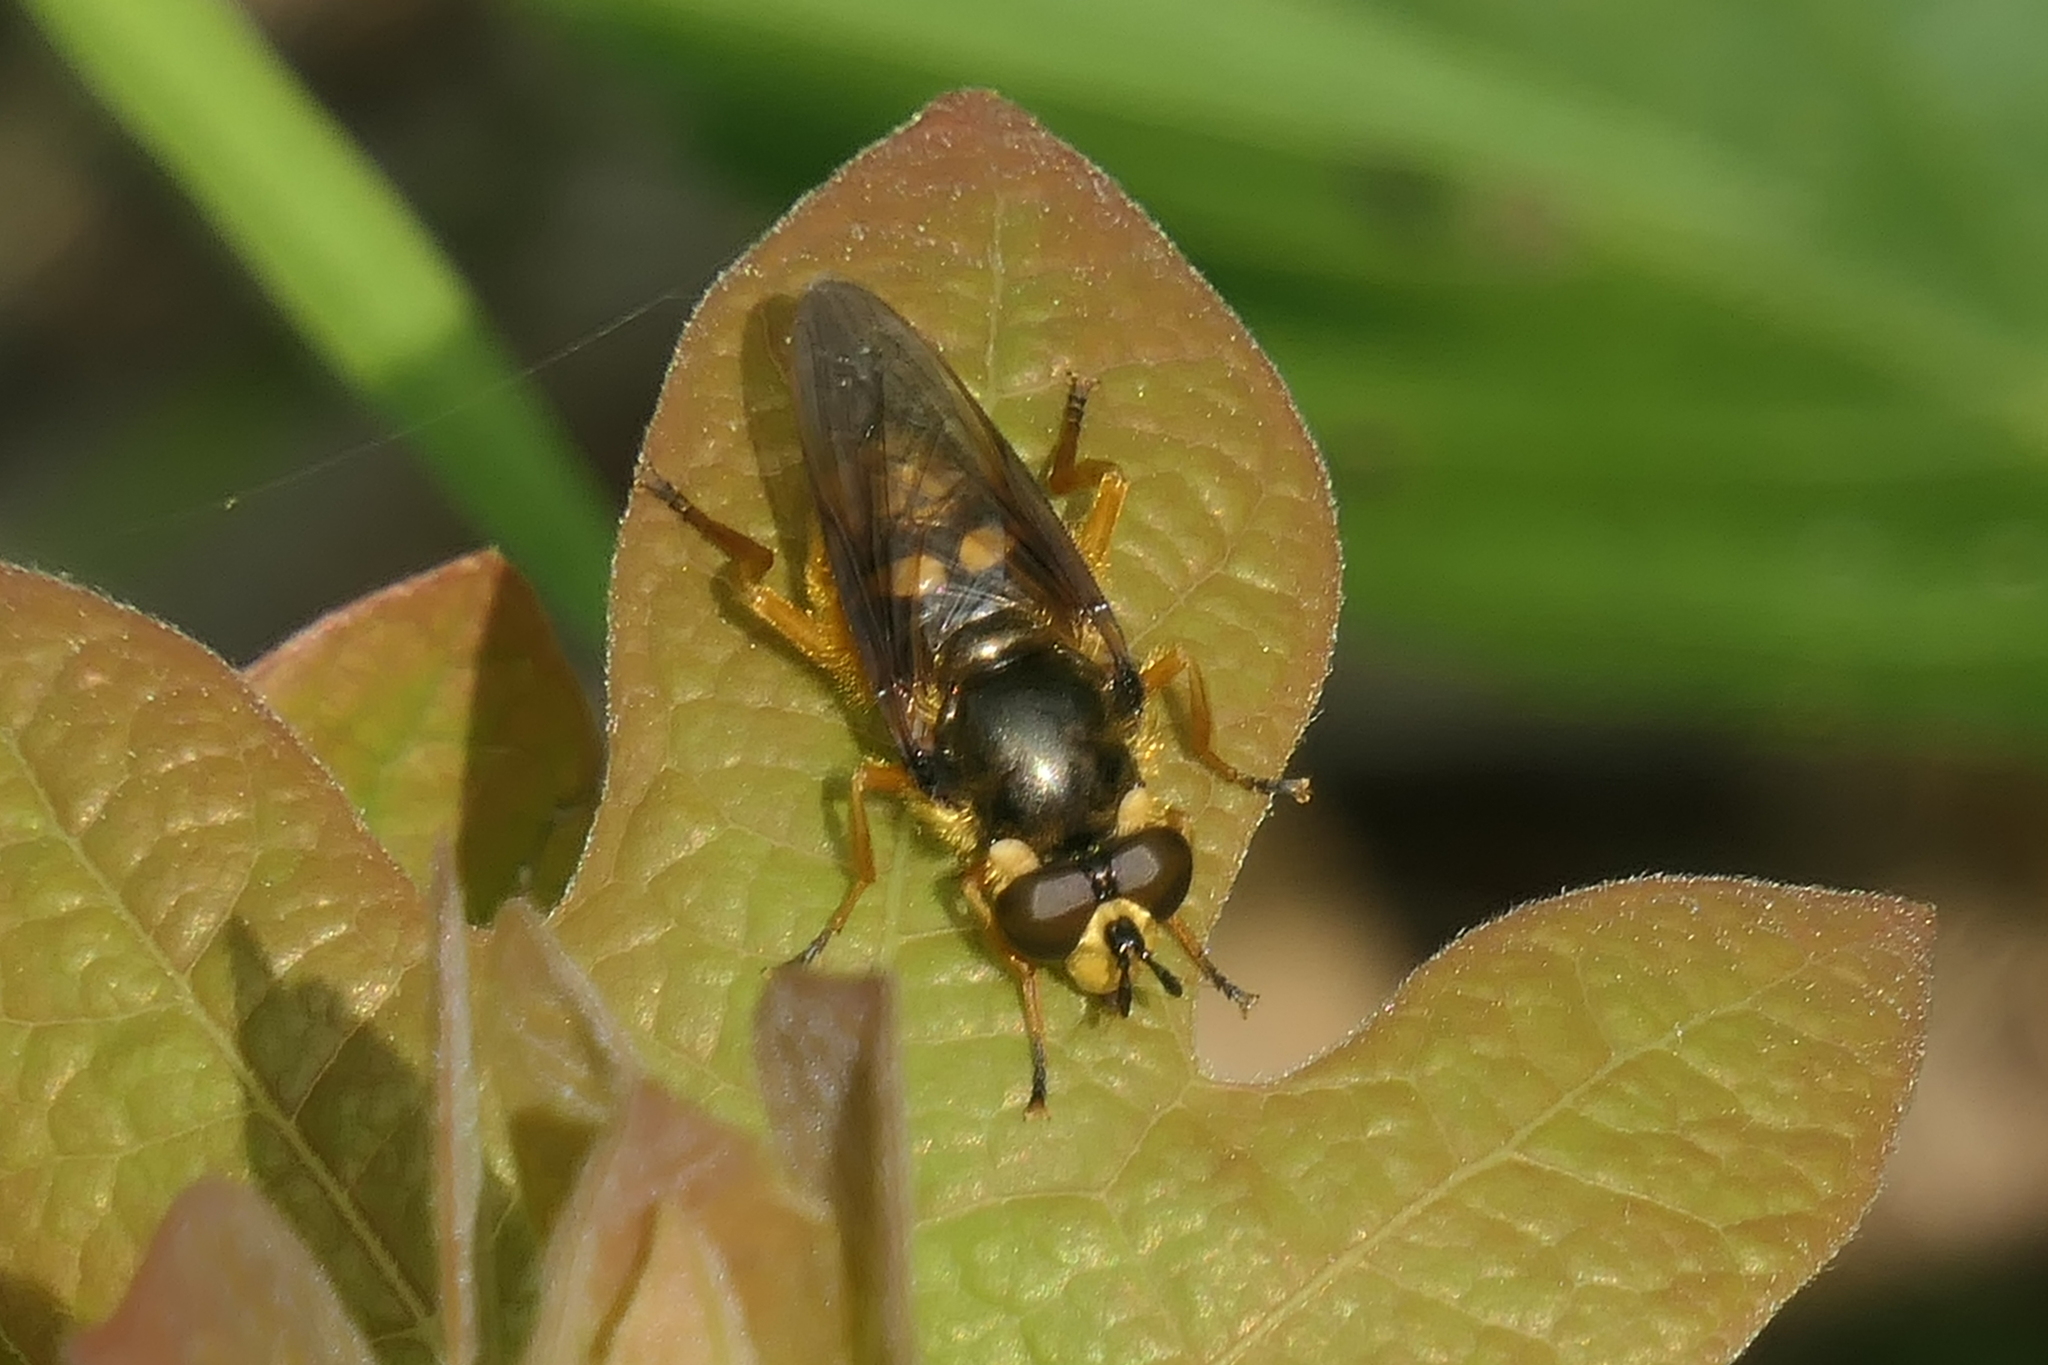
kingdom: Animalia
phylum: Arthropoda
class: Insecta
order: Diptera
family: Syrphidae
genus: Somula
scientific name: Somula decora
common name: Spotted wood fly
